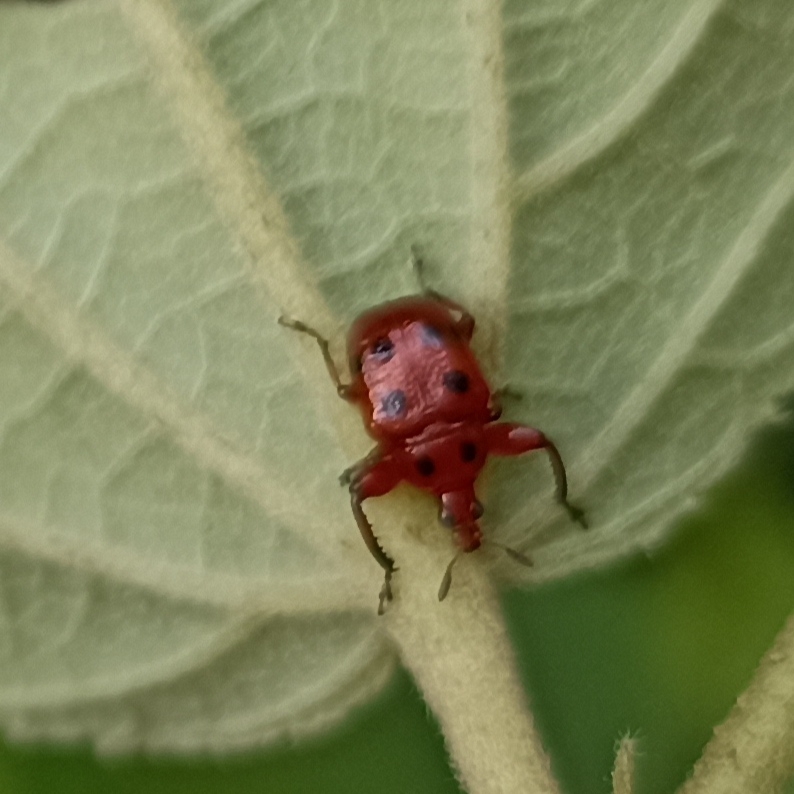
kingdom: Animalia
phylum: Arthropoda
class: Insecta
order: Coleoptera
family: Attelabidae
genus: Henicolabus
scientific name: Henicolabus octomaculatus
